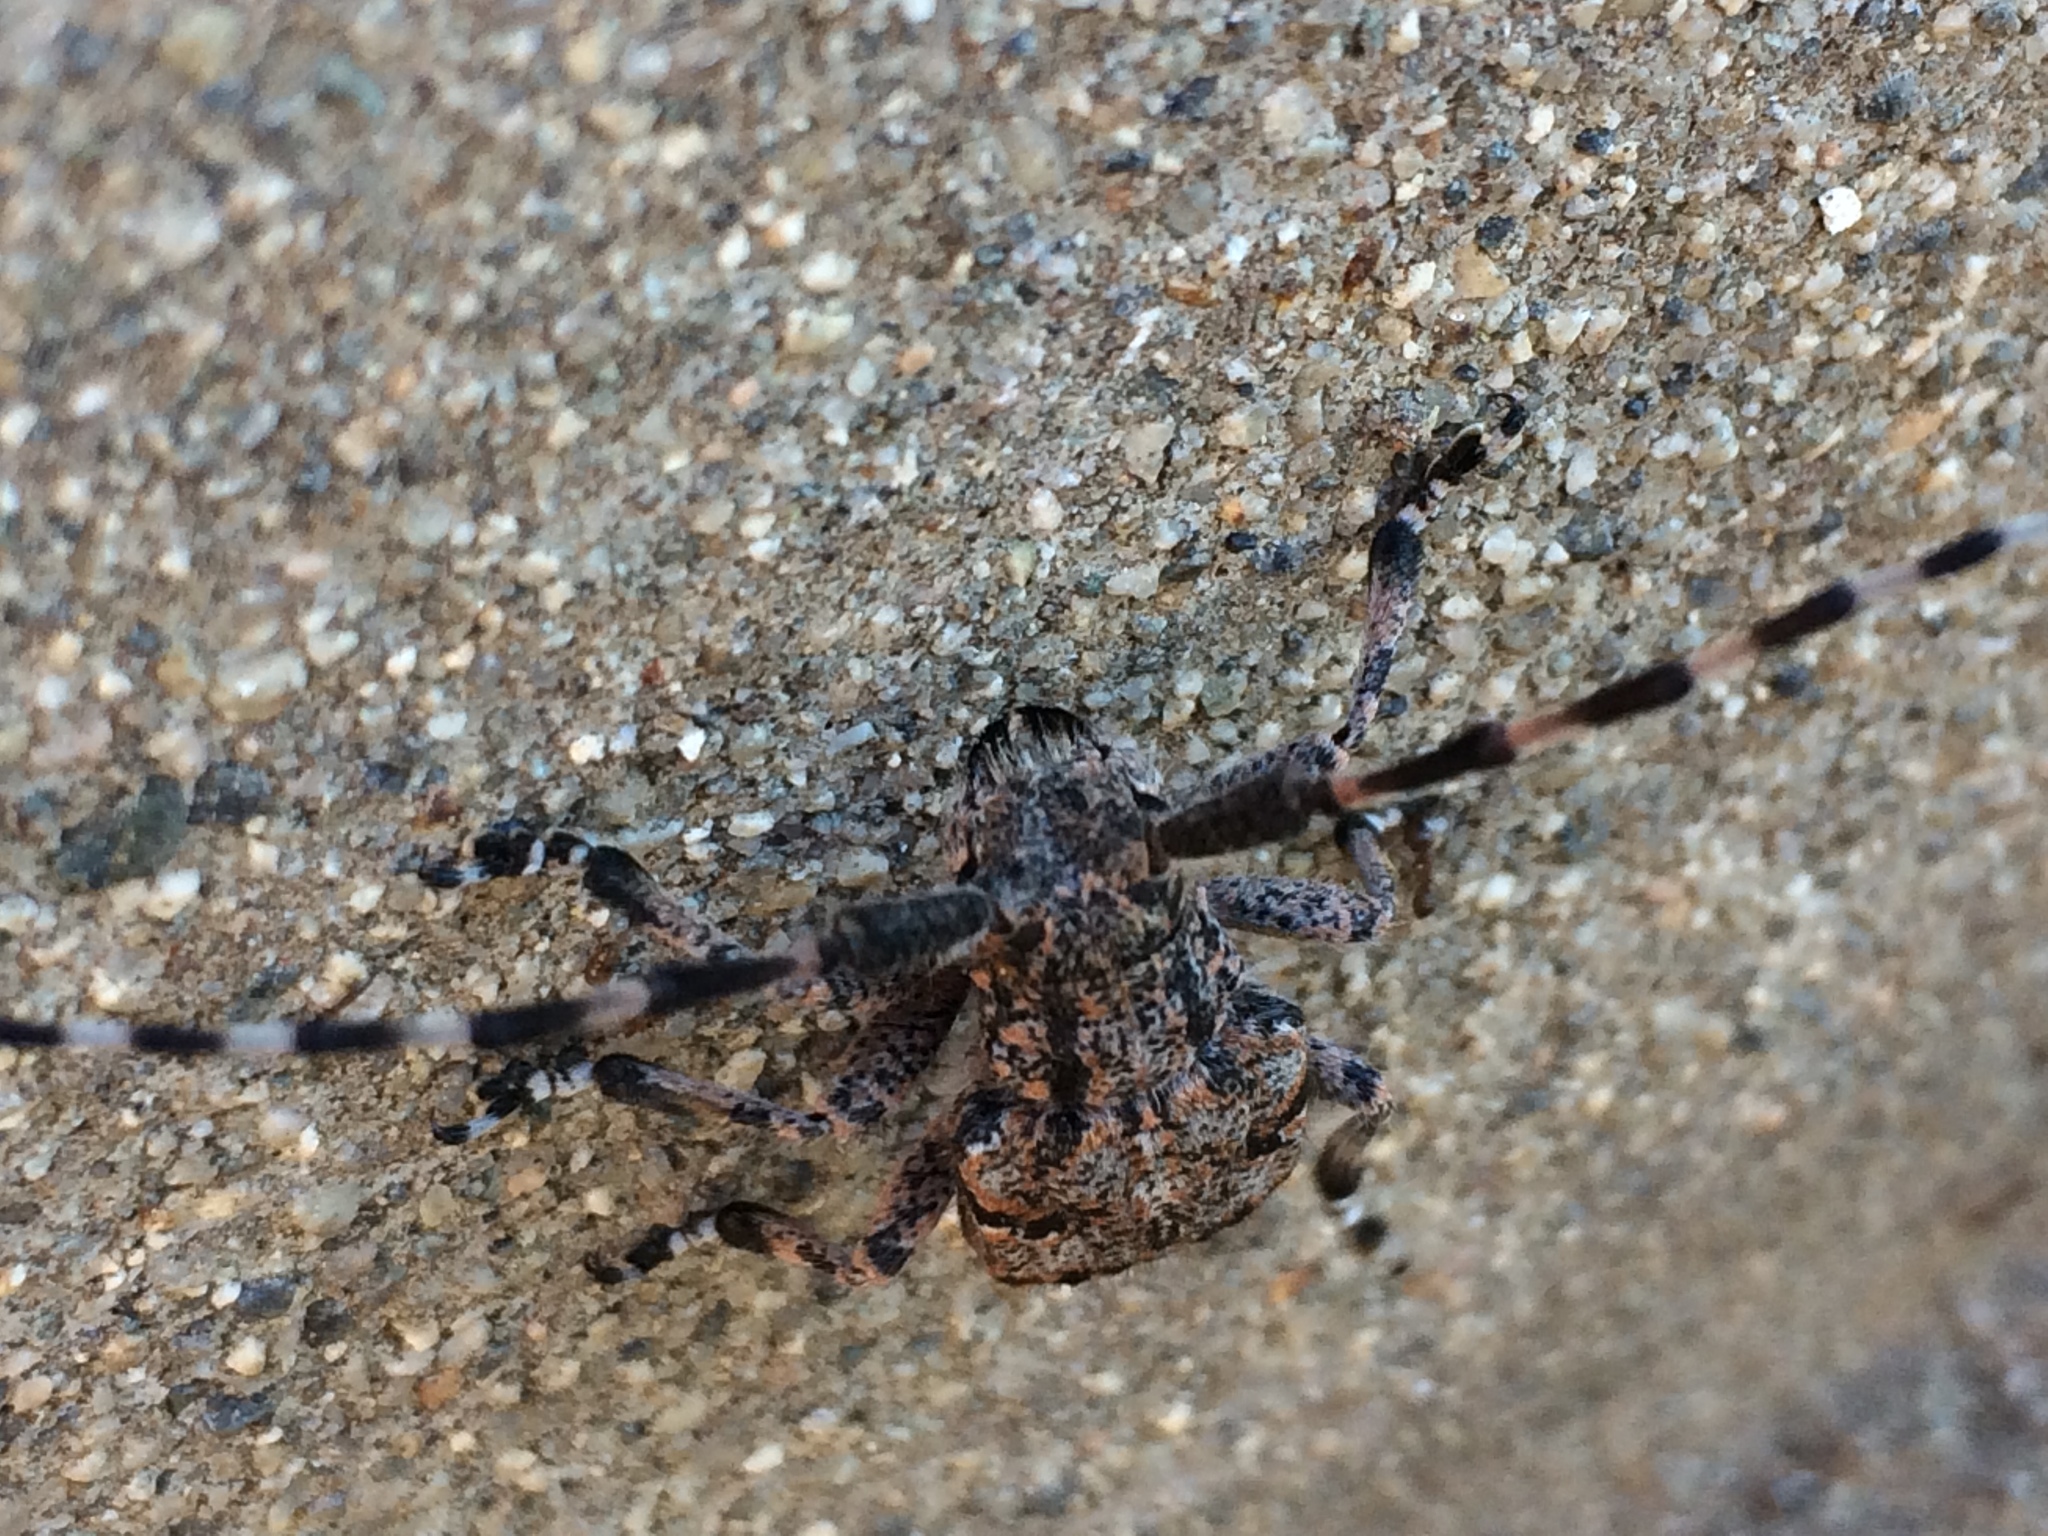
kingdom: Animalia
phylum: Arthropoda
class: Insecta
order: Coleoptera
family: Cerambycidae
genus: Synaphaeta
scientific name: Synaphaeta guexi
